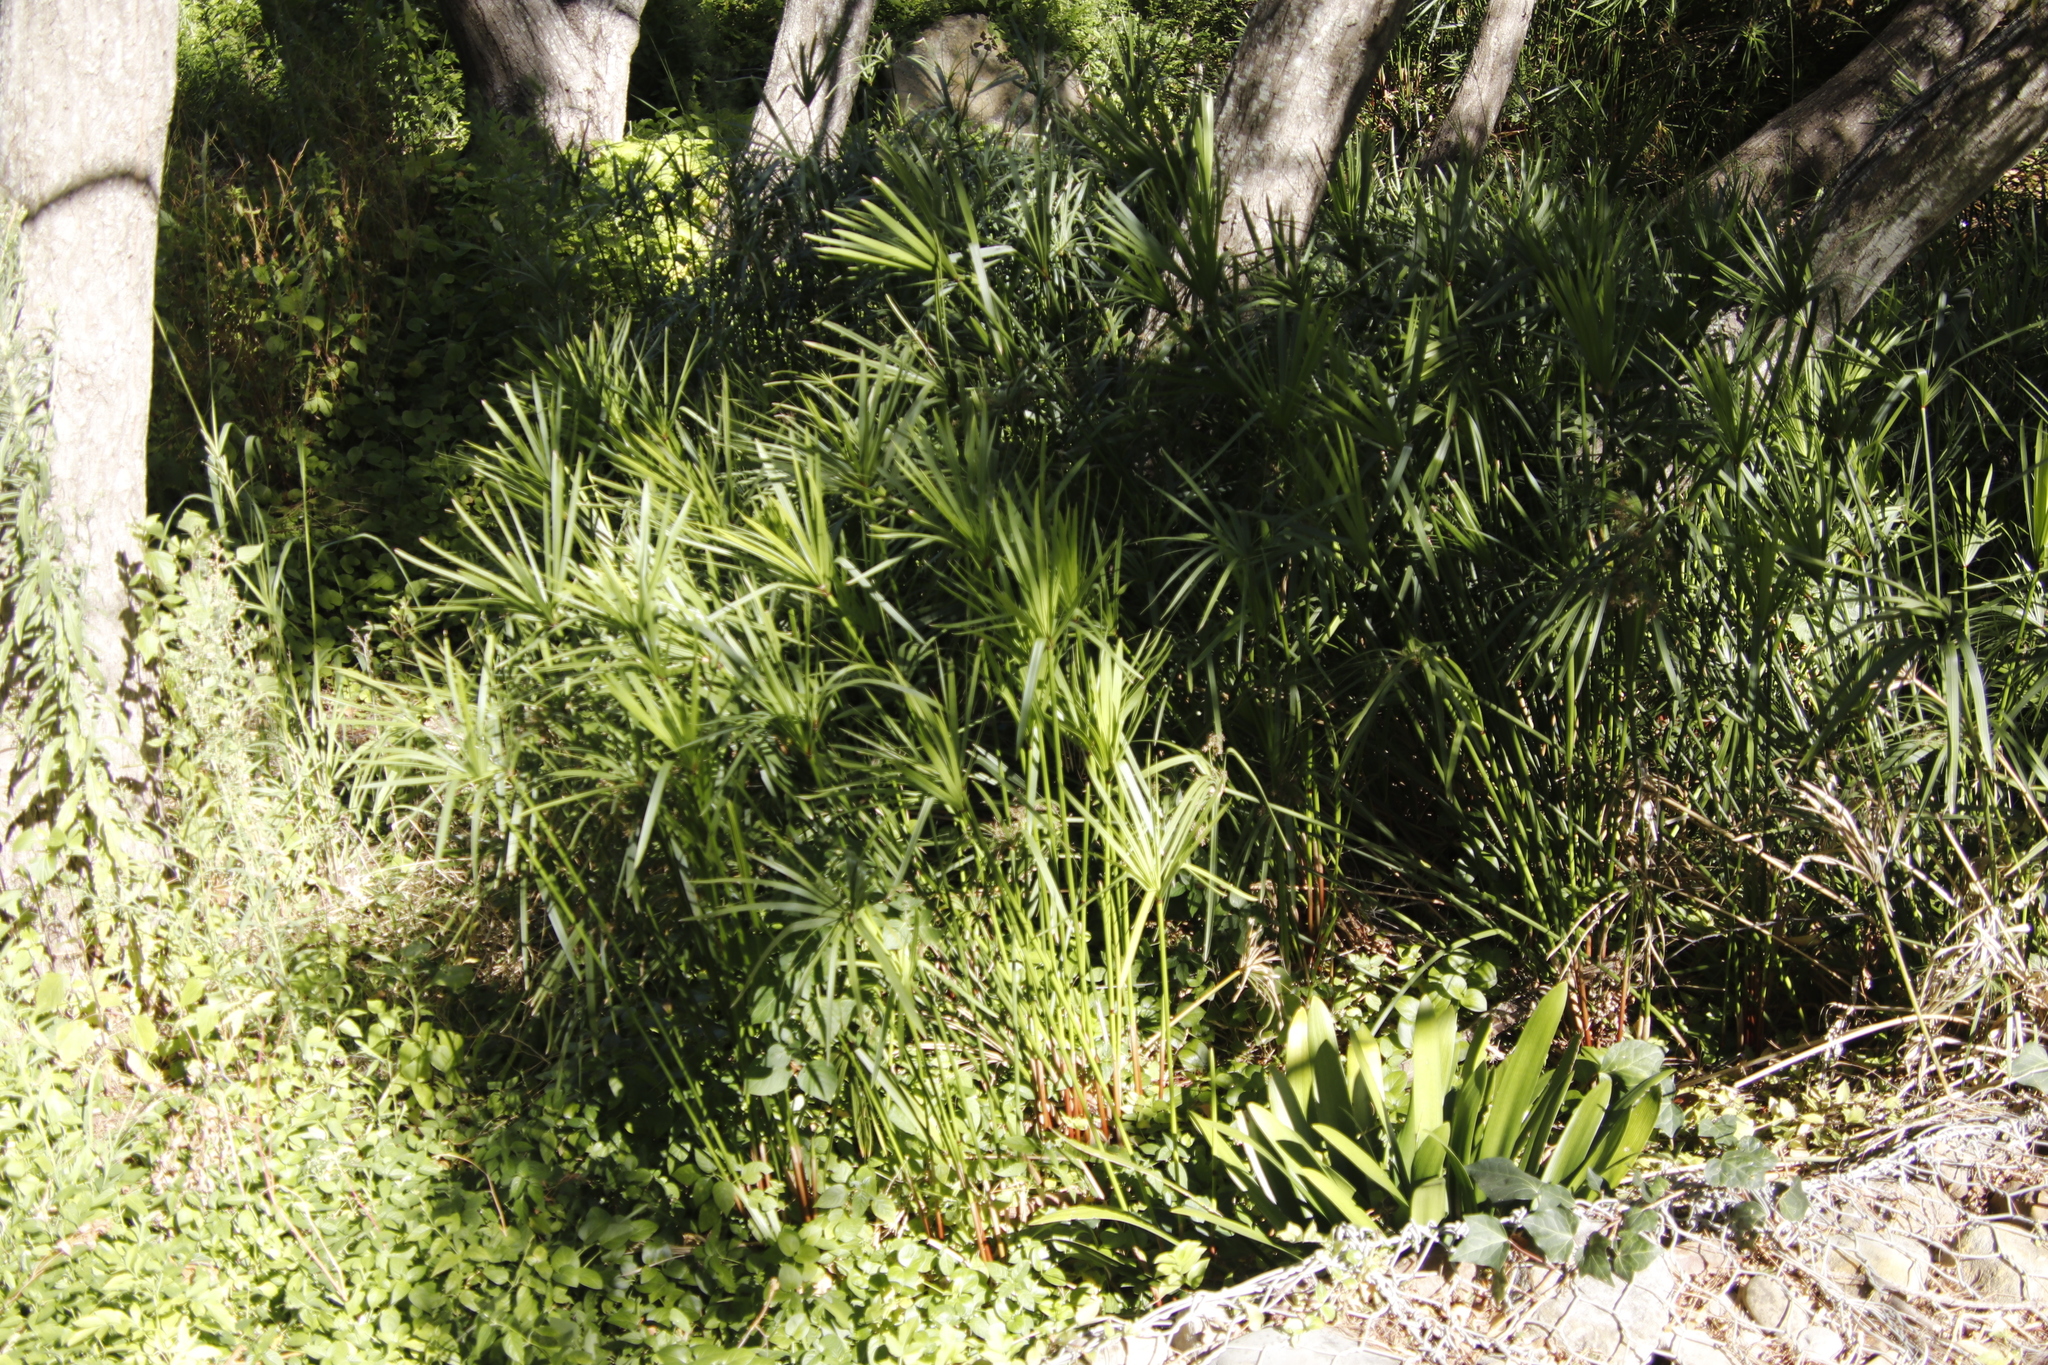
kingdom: Plantae
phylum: Tracheophyta
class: Liliopsida
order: Poales
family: Cyperaceae
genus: Cyperus
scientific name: Cyperus textilis
